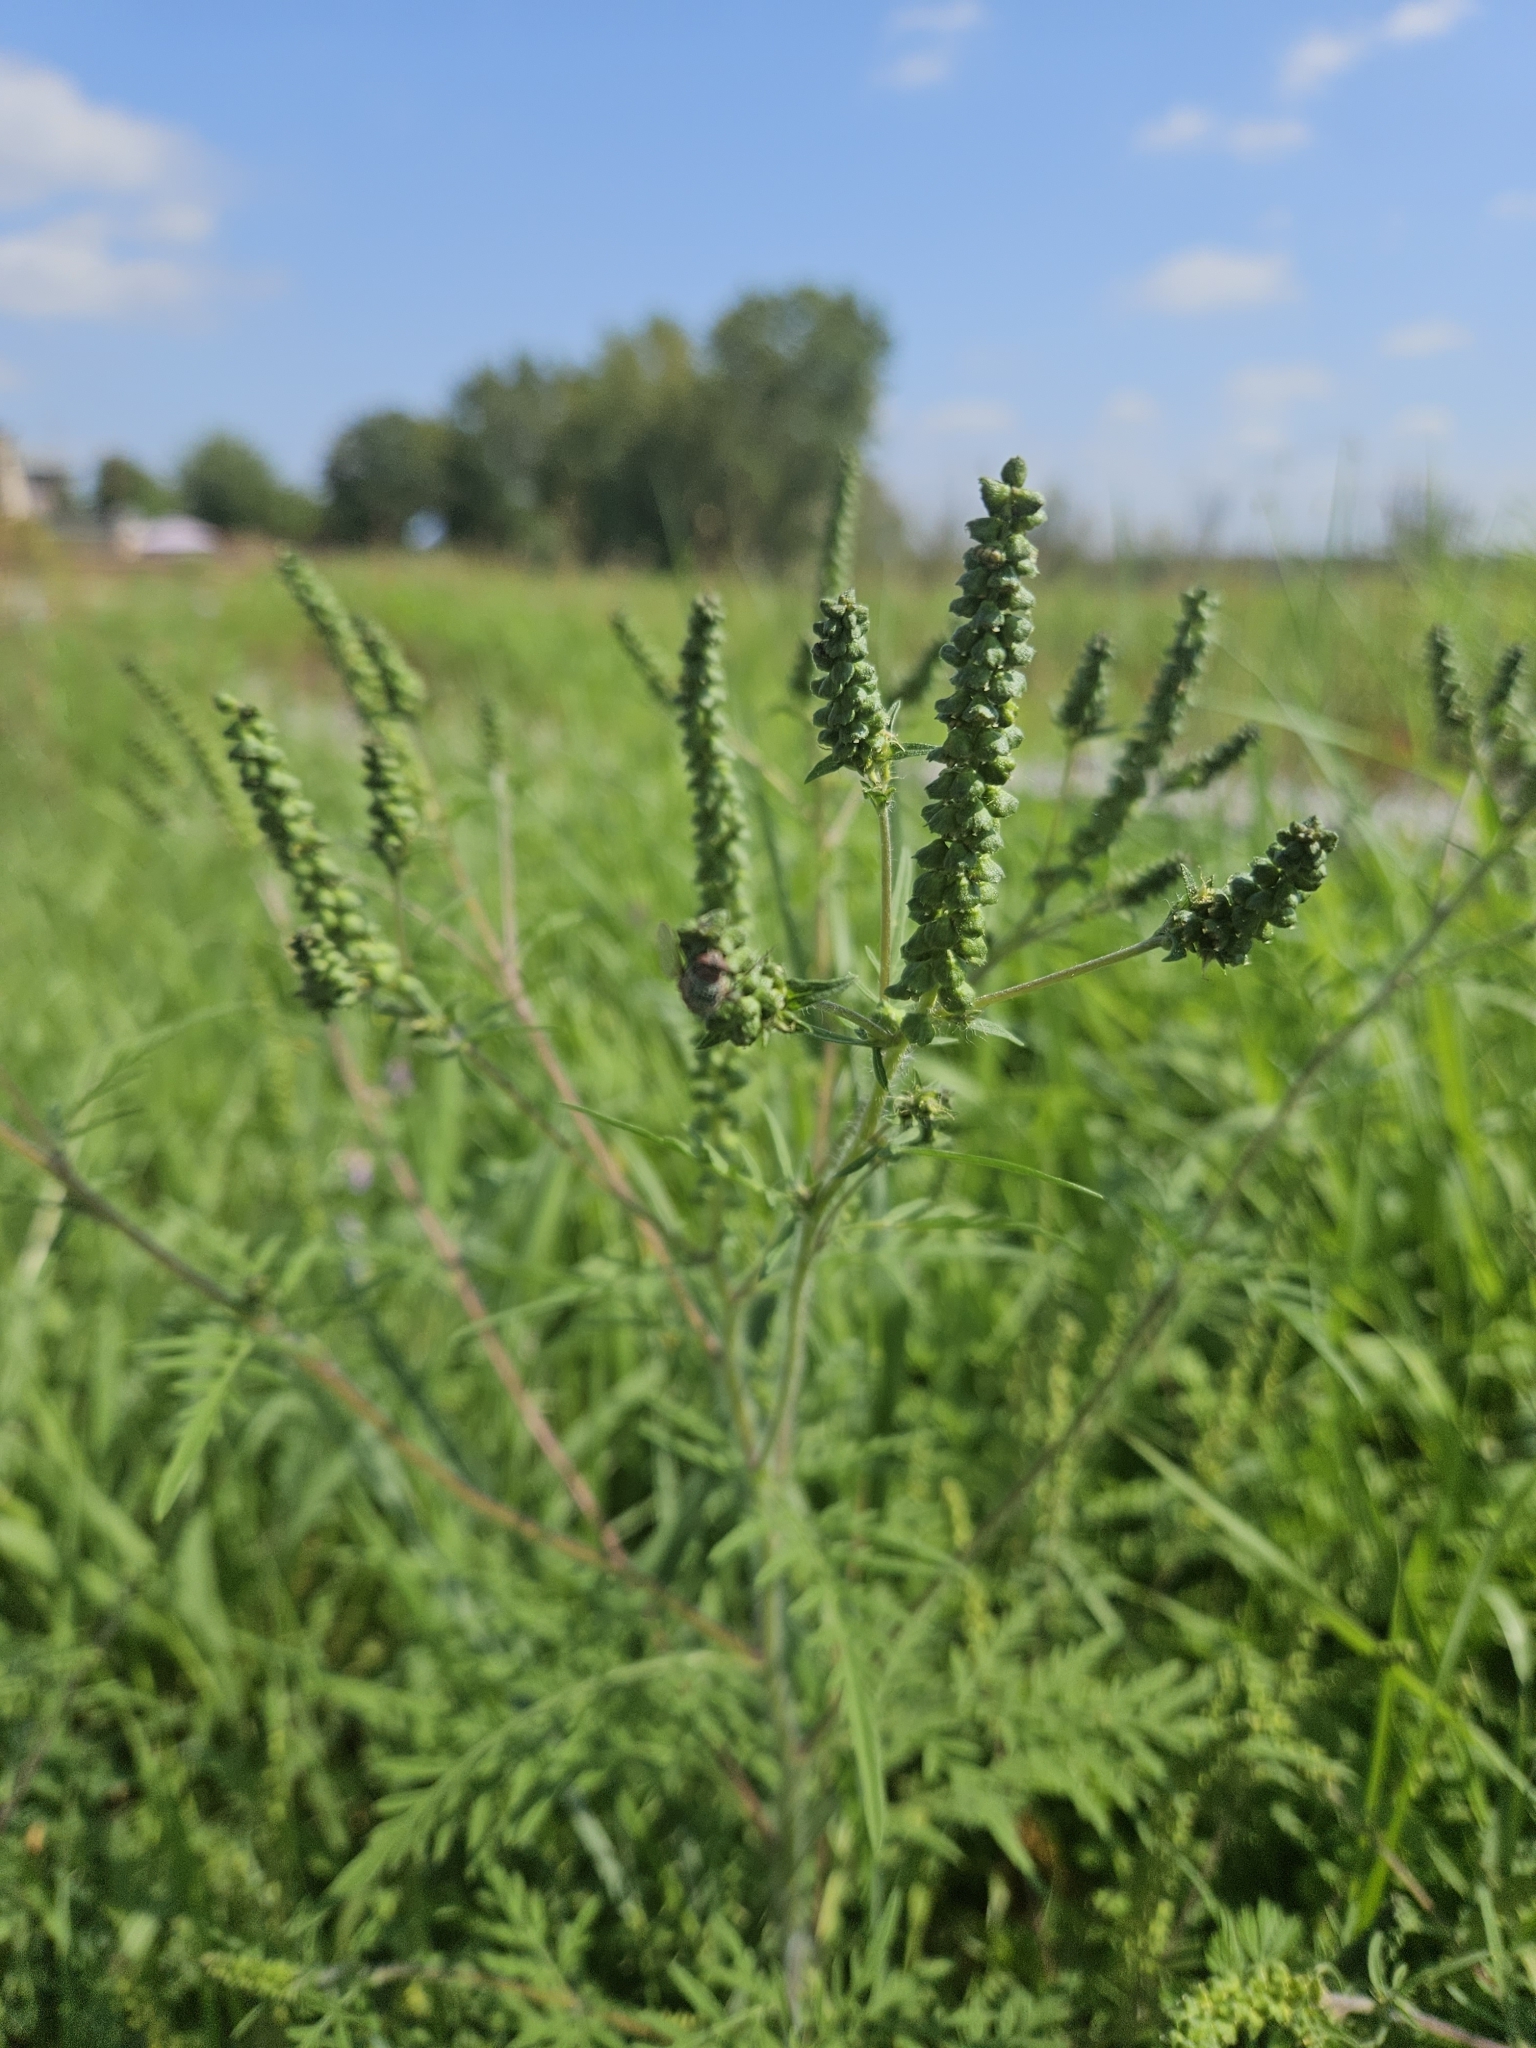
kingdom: Plantae
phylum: Tracheophyta
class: Magnoliopsida
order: Asterales
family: Asteraceae
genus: Ambrosia
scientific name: Ambrosia artemisiifolia
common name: Annual ragweed
